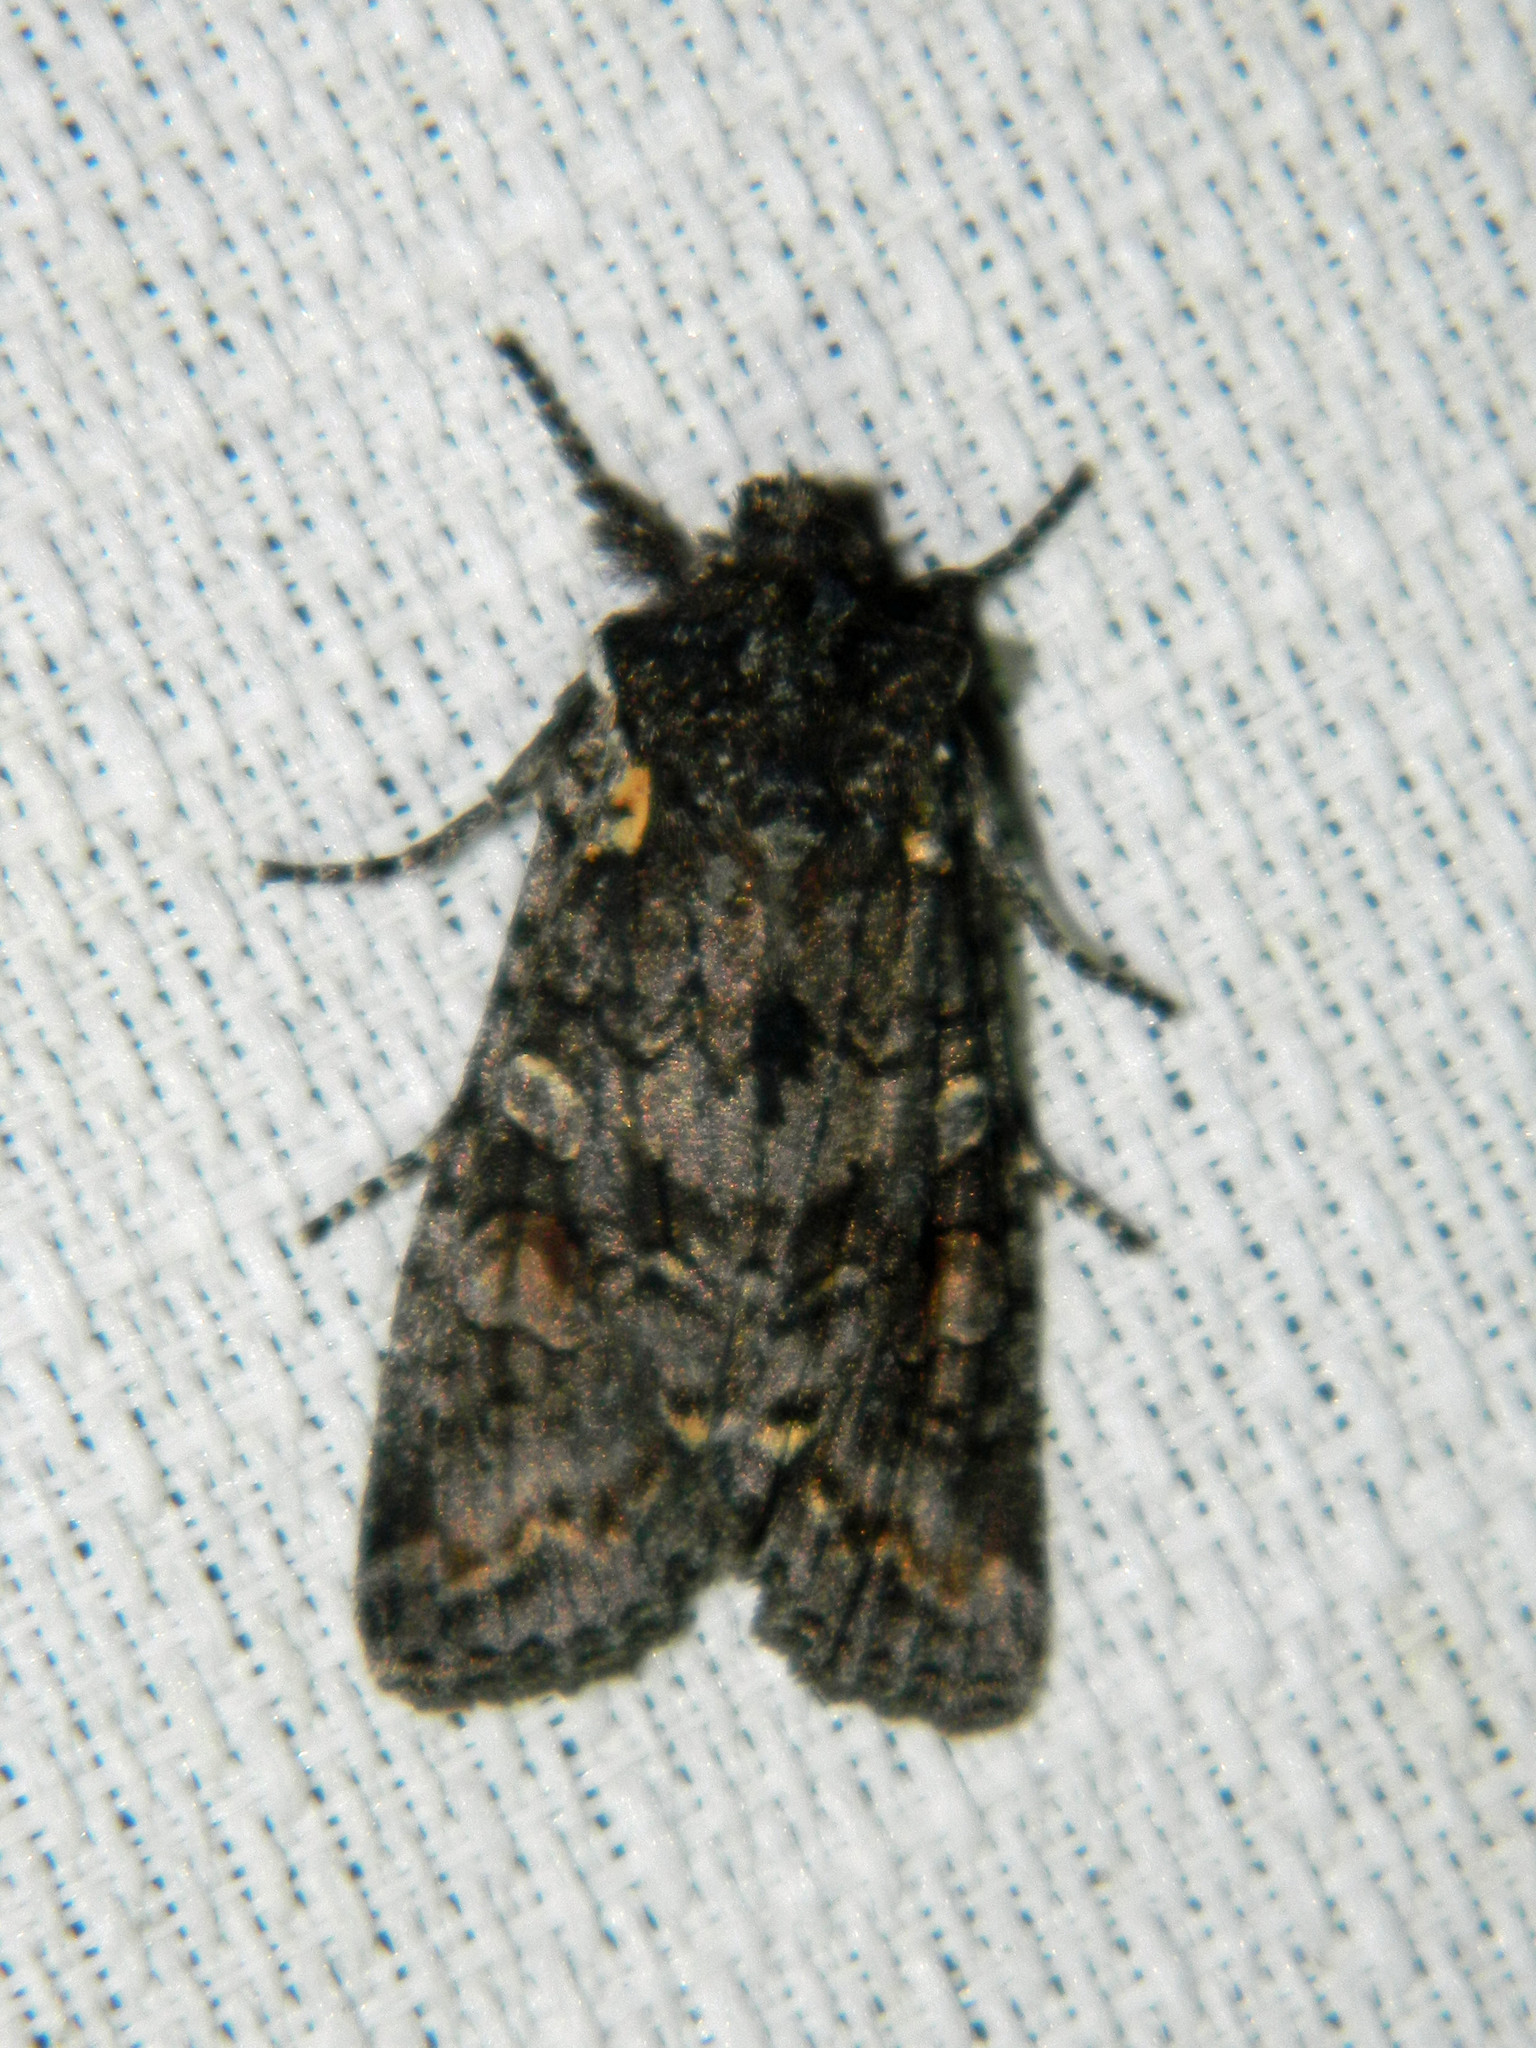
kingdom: Animalia
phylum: Arthropoda
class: Insecta
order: Lepidoptera
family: Noctuidae
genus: Lithophane
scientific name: Lithophane pexata
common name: Plush-naped pinion moth
